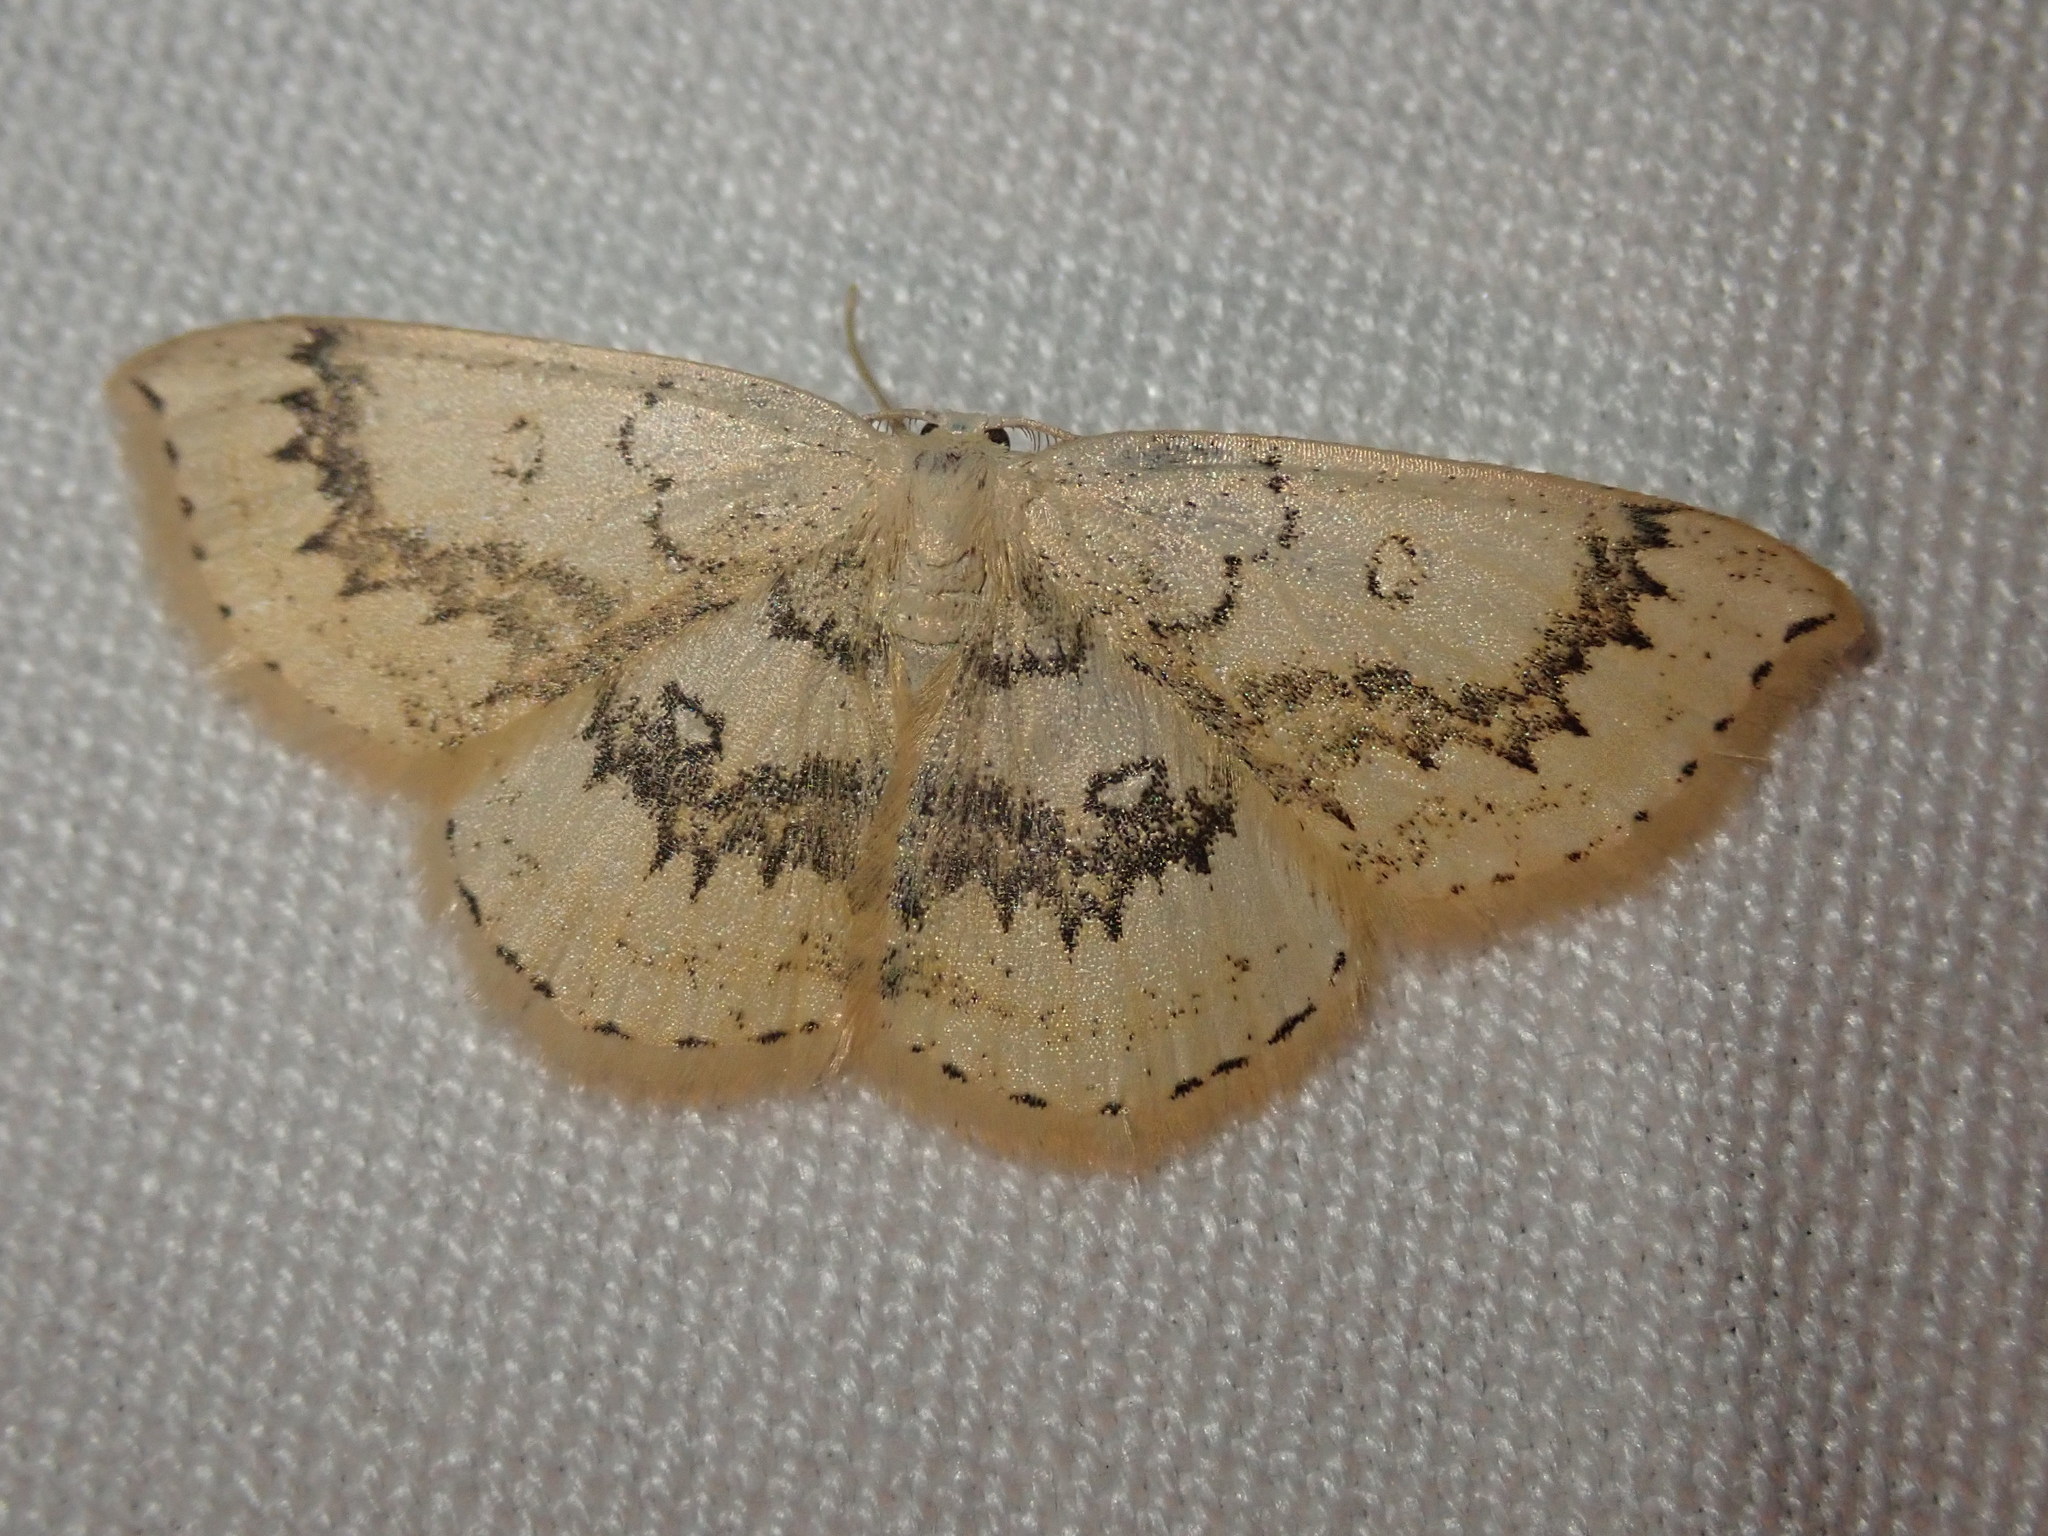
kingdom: Animalia
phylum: Arthropoda
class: Insecta
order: Lepidoptera
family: Geometridae
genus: Cyclophora
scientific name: Cyclophora annularia
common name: Mocha
